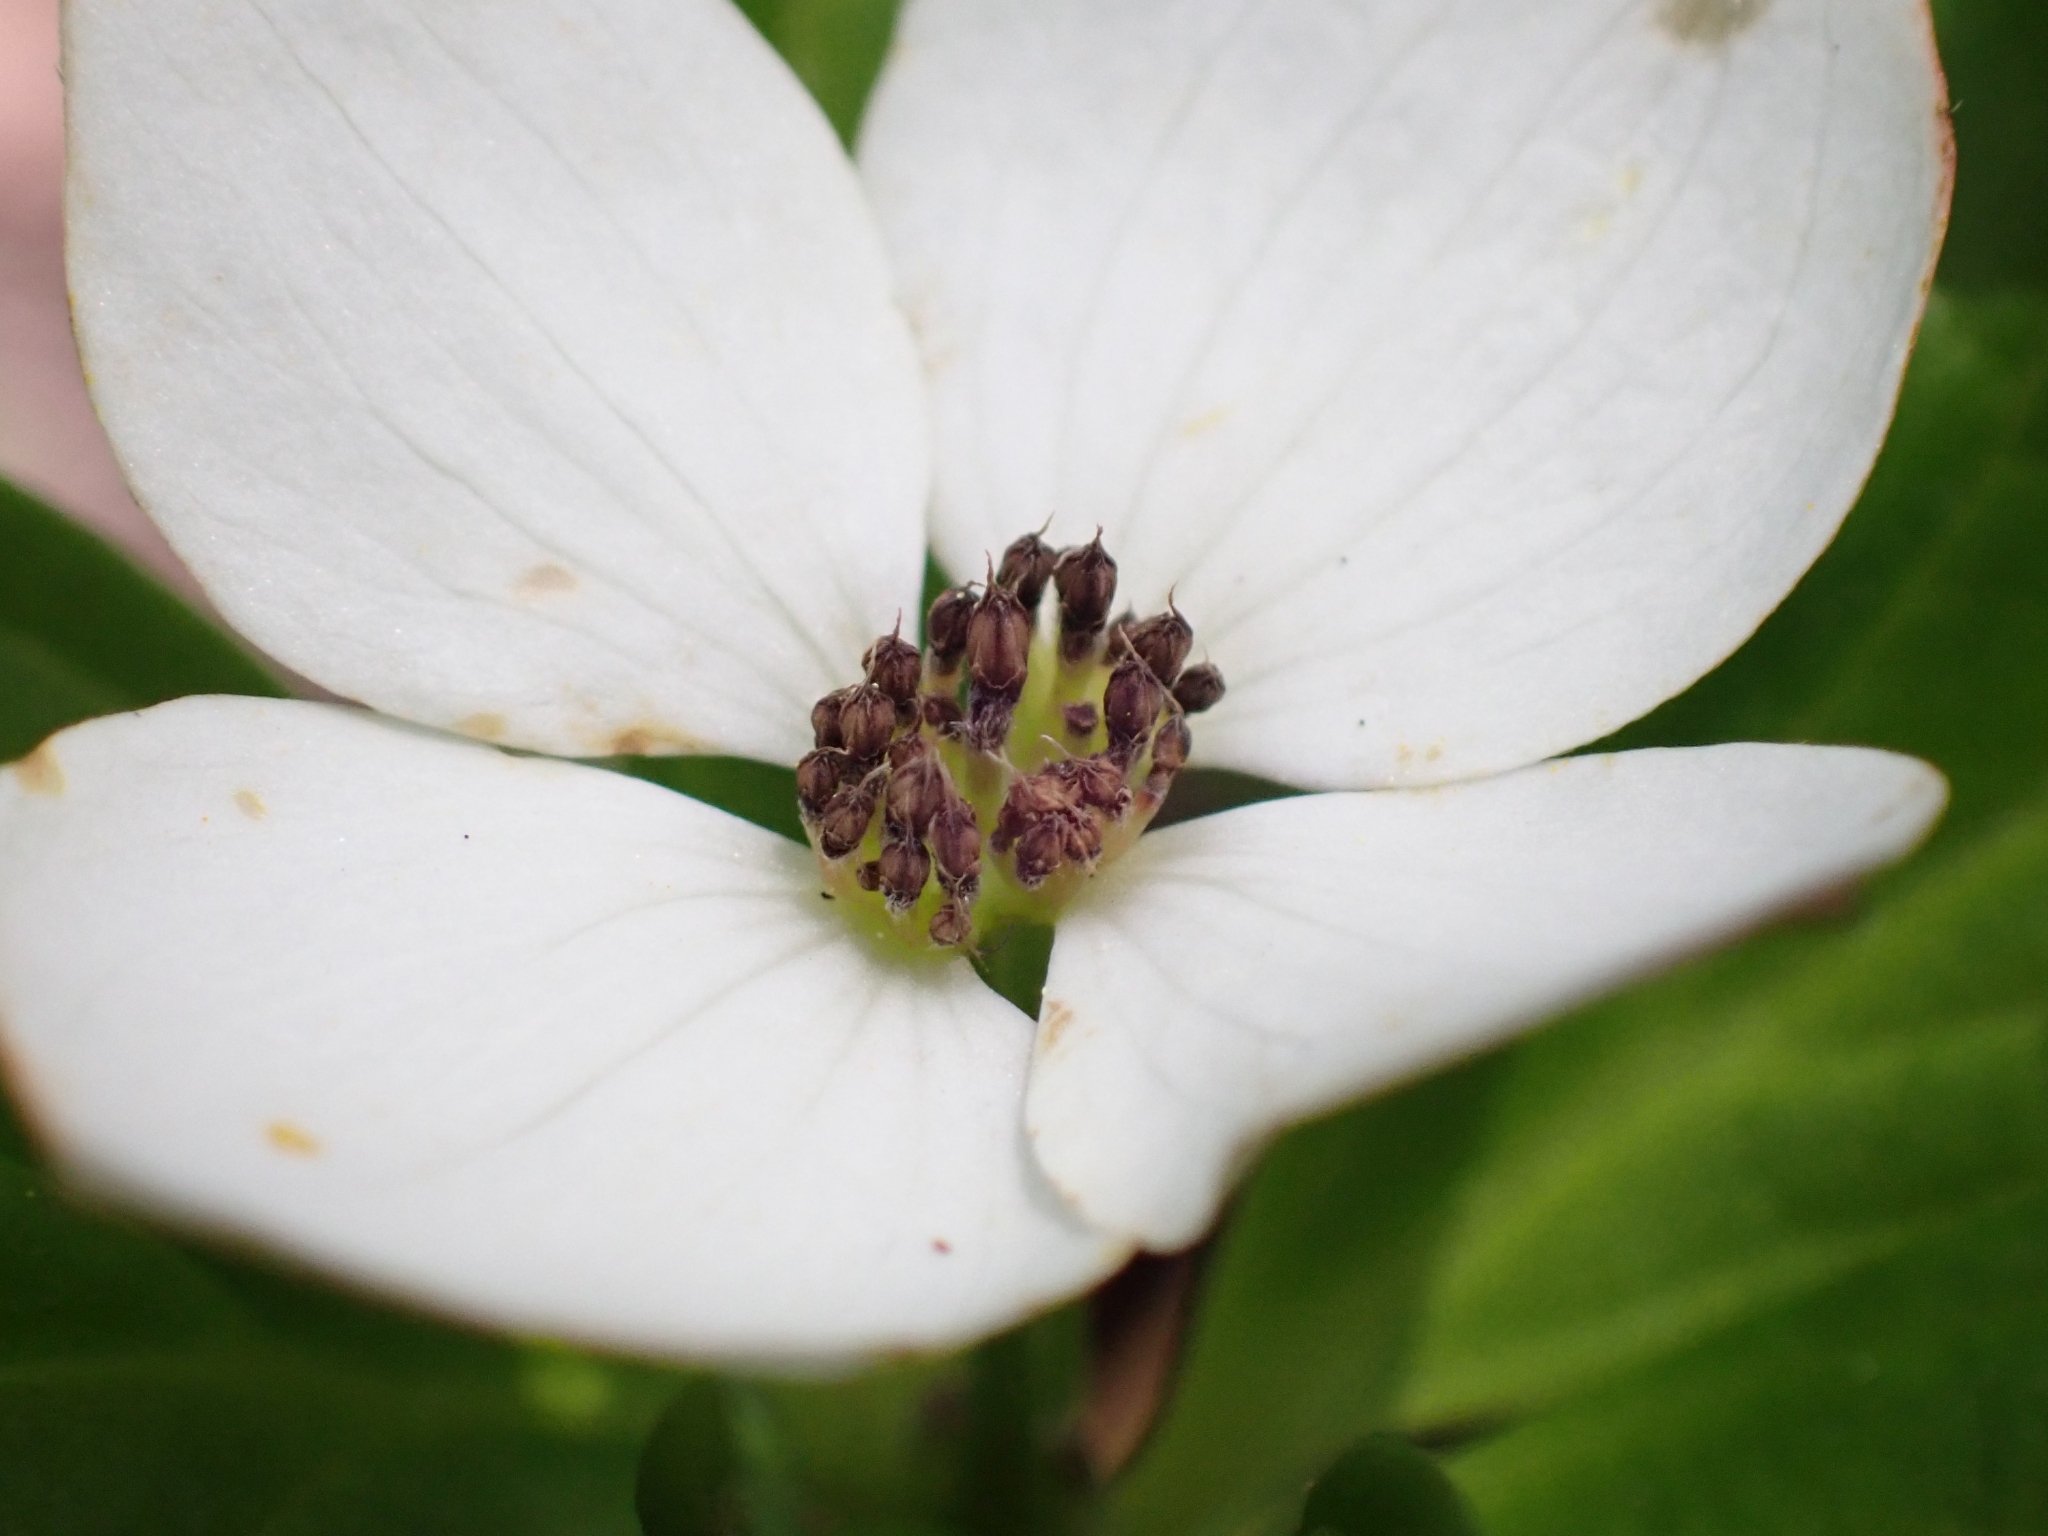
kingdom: Plantae
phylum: Tracheophyta
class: Magnoliopsida
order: Cornales
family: Cornaceae
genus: Cornus
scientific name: Cornus unalaschkensis
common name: Alaska bunchberry
